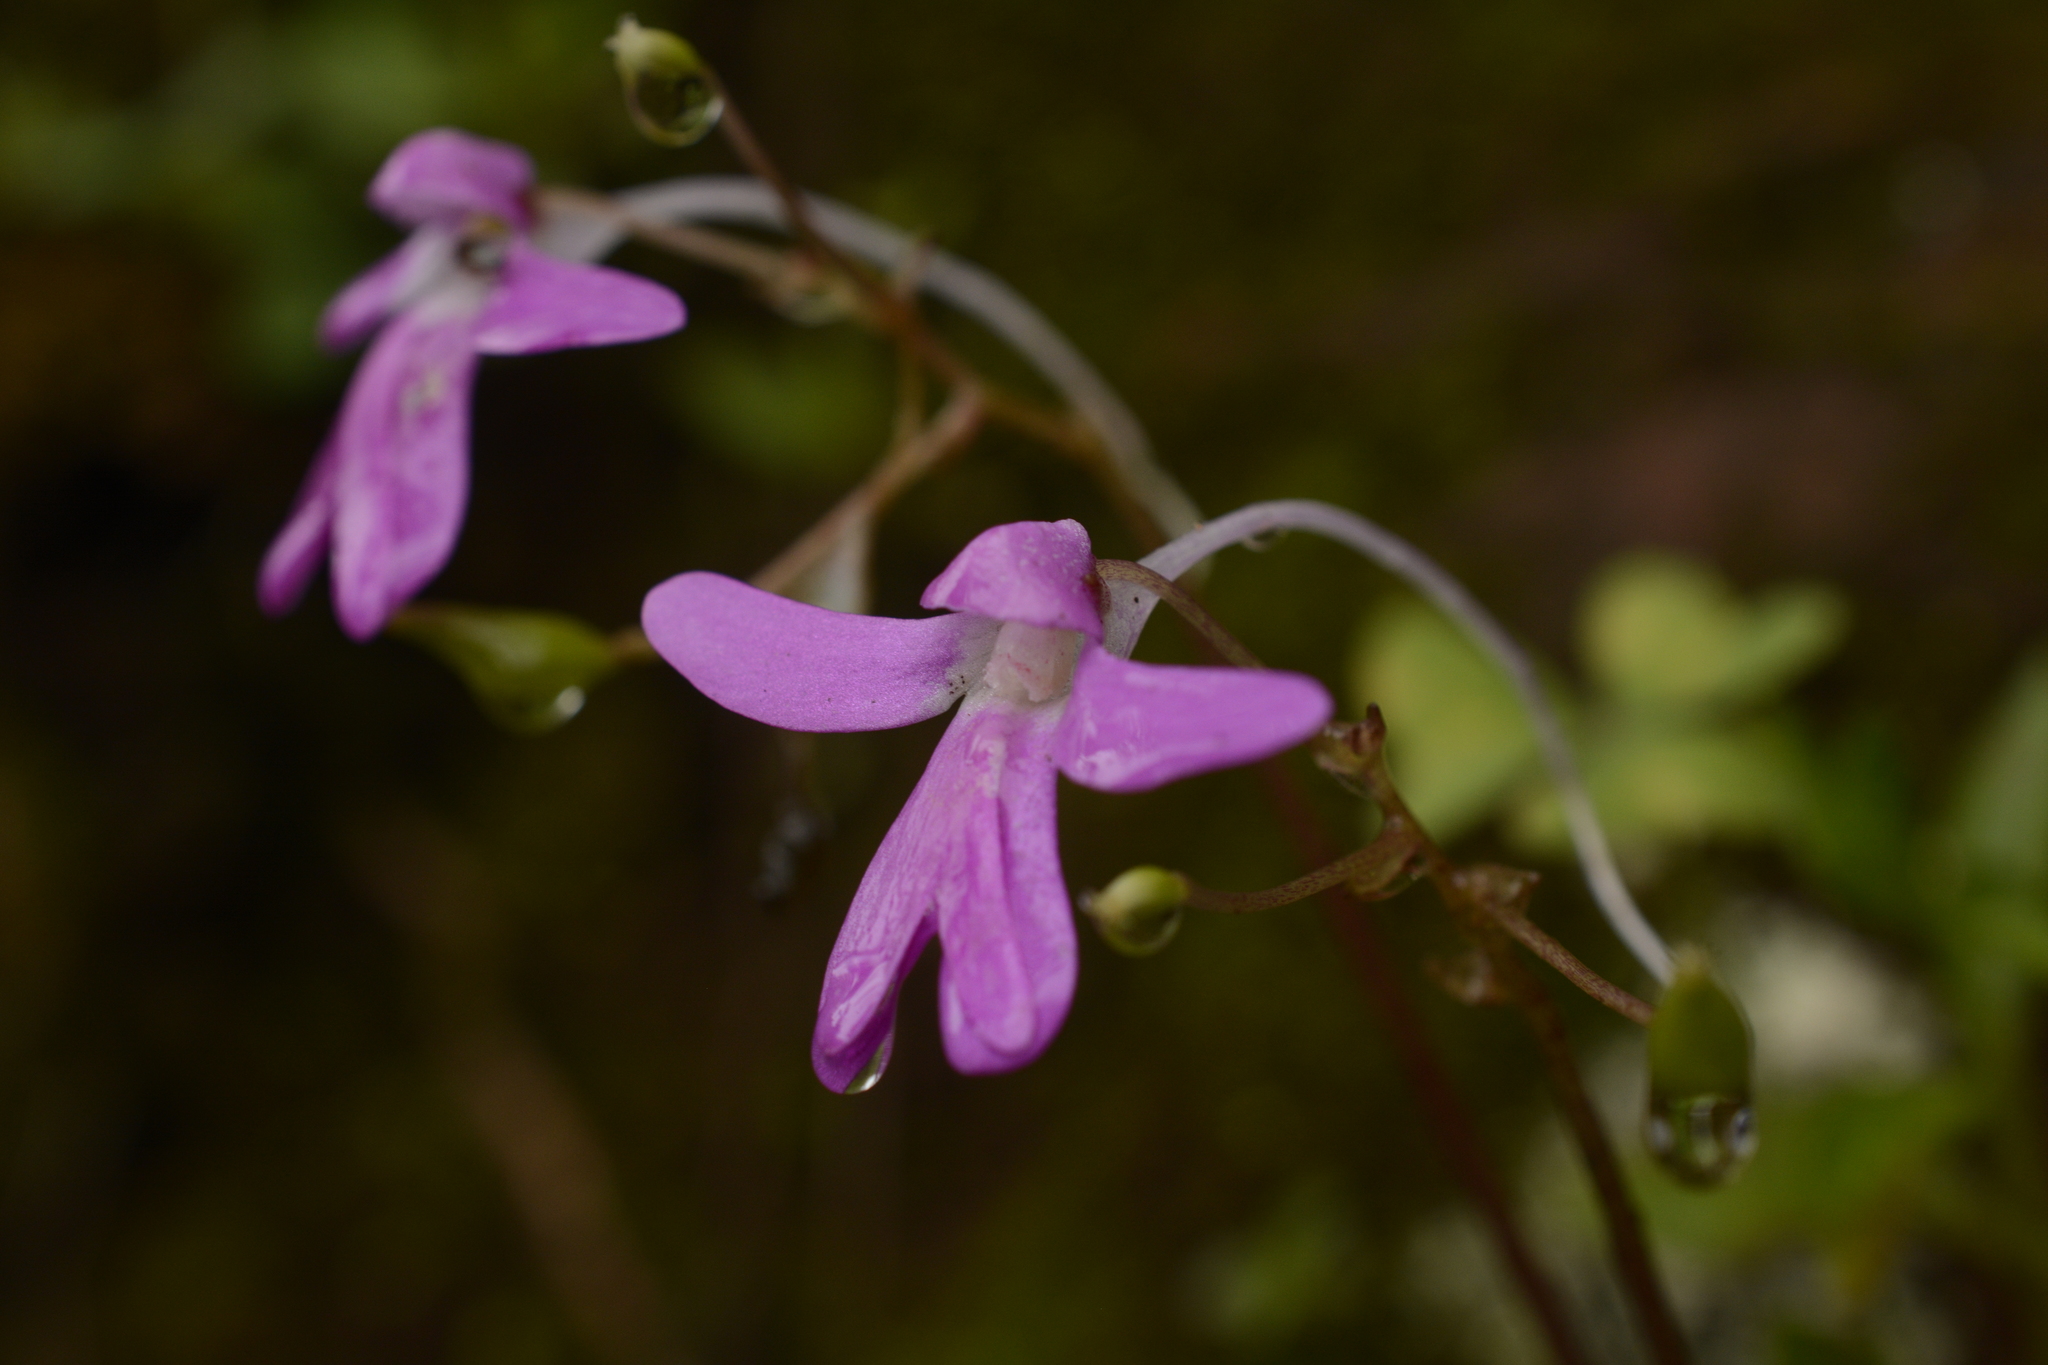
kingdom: Plantae
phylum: Tracheophyta
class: Magnoliopsida
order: Ericales
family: Balsaminaceae
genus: Impatiens
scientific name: Impatiens scapiflora
